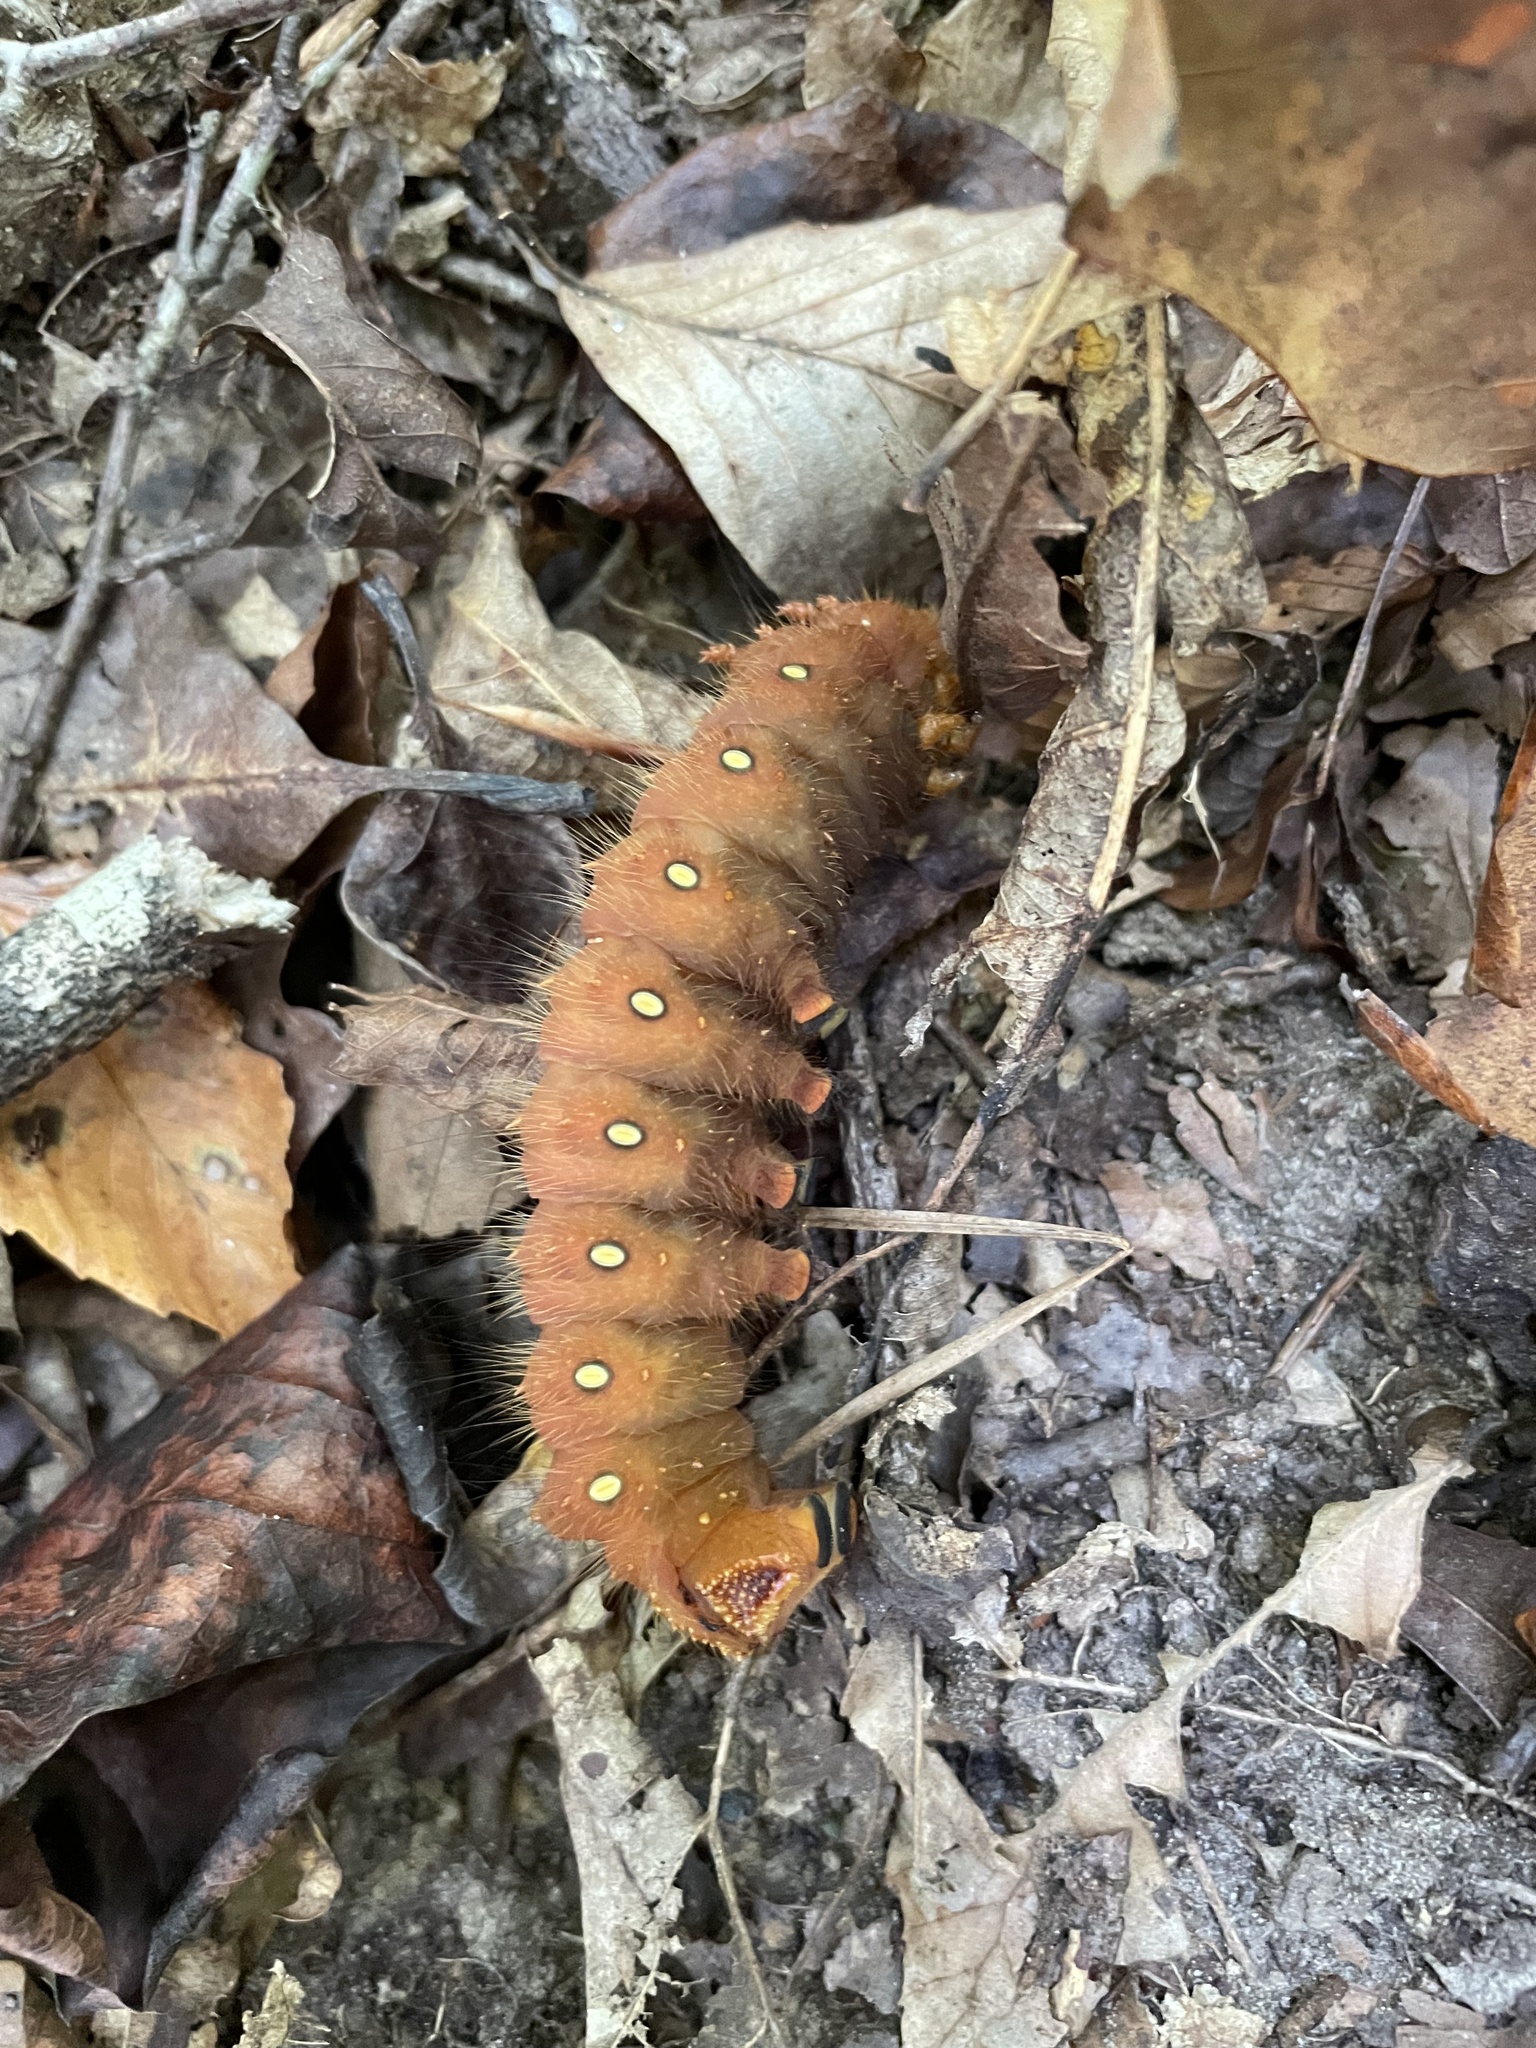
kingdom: Animalia
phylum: Arthropoda
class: Insecta
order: Lepidoptera
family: Saturniidae
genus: Eacles
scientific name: Eacles imperialis
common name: Imperial moth
